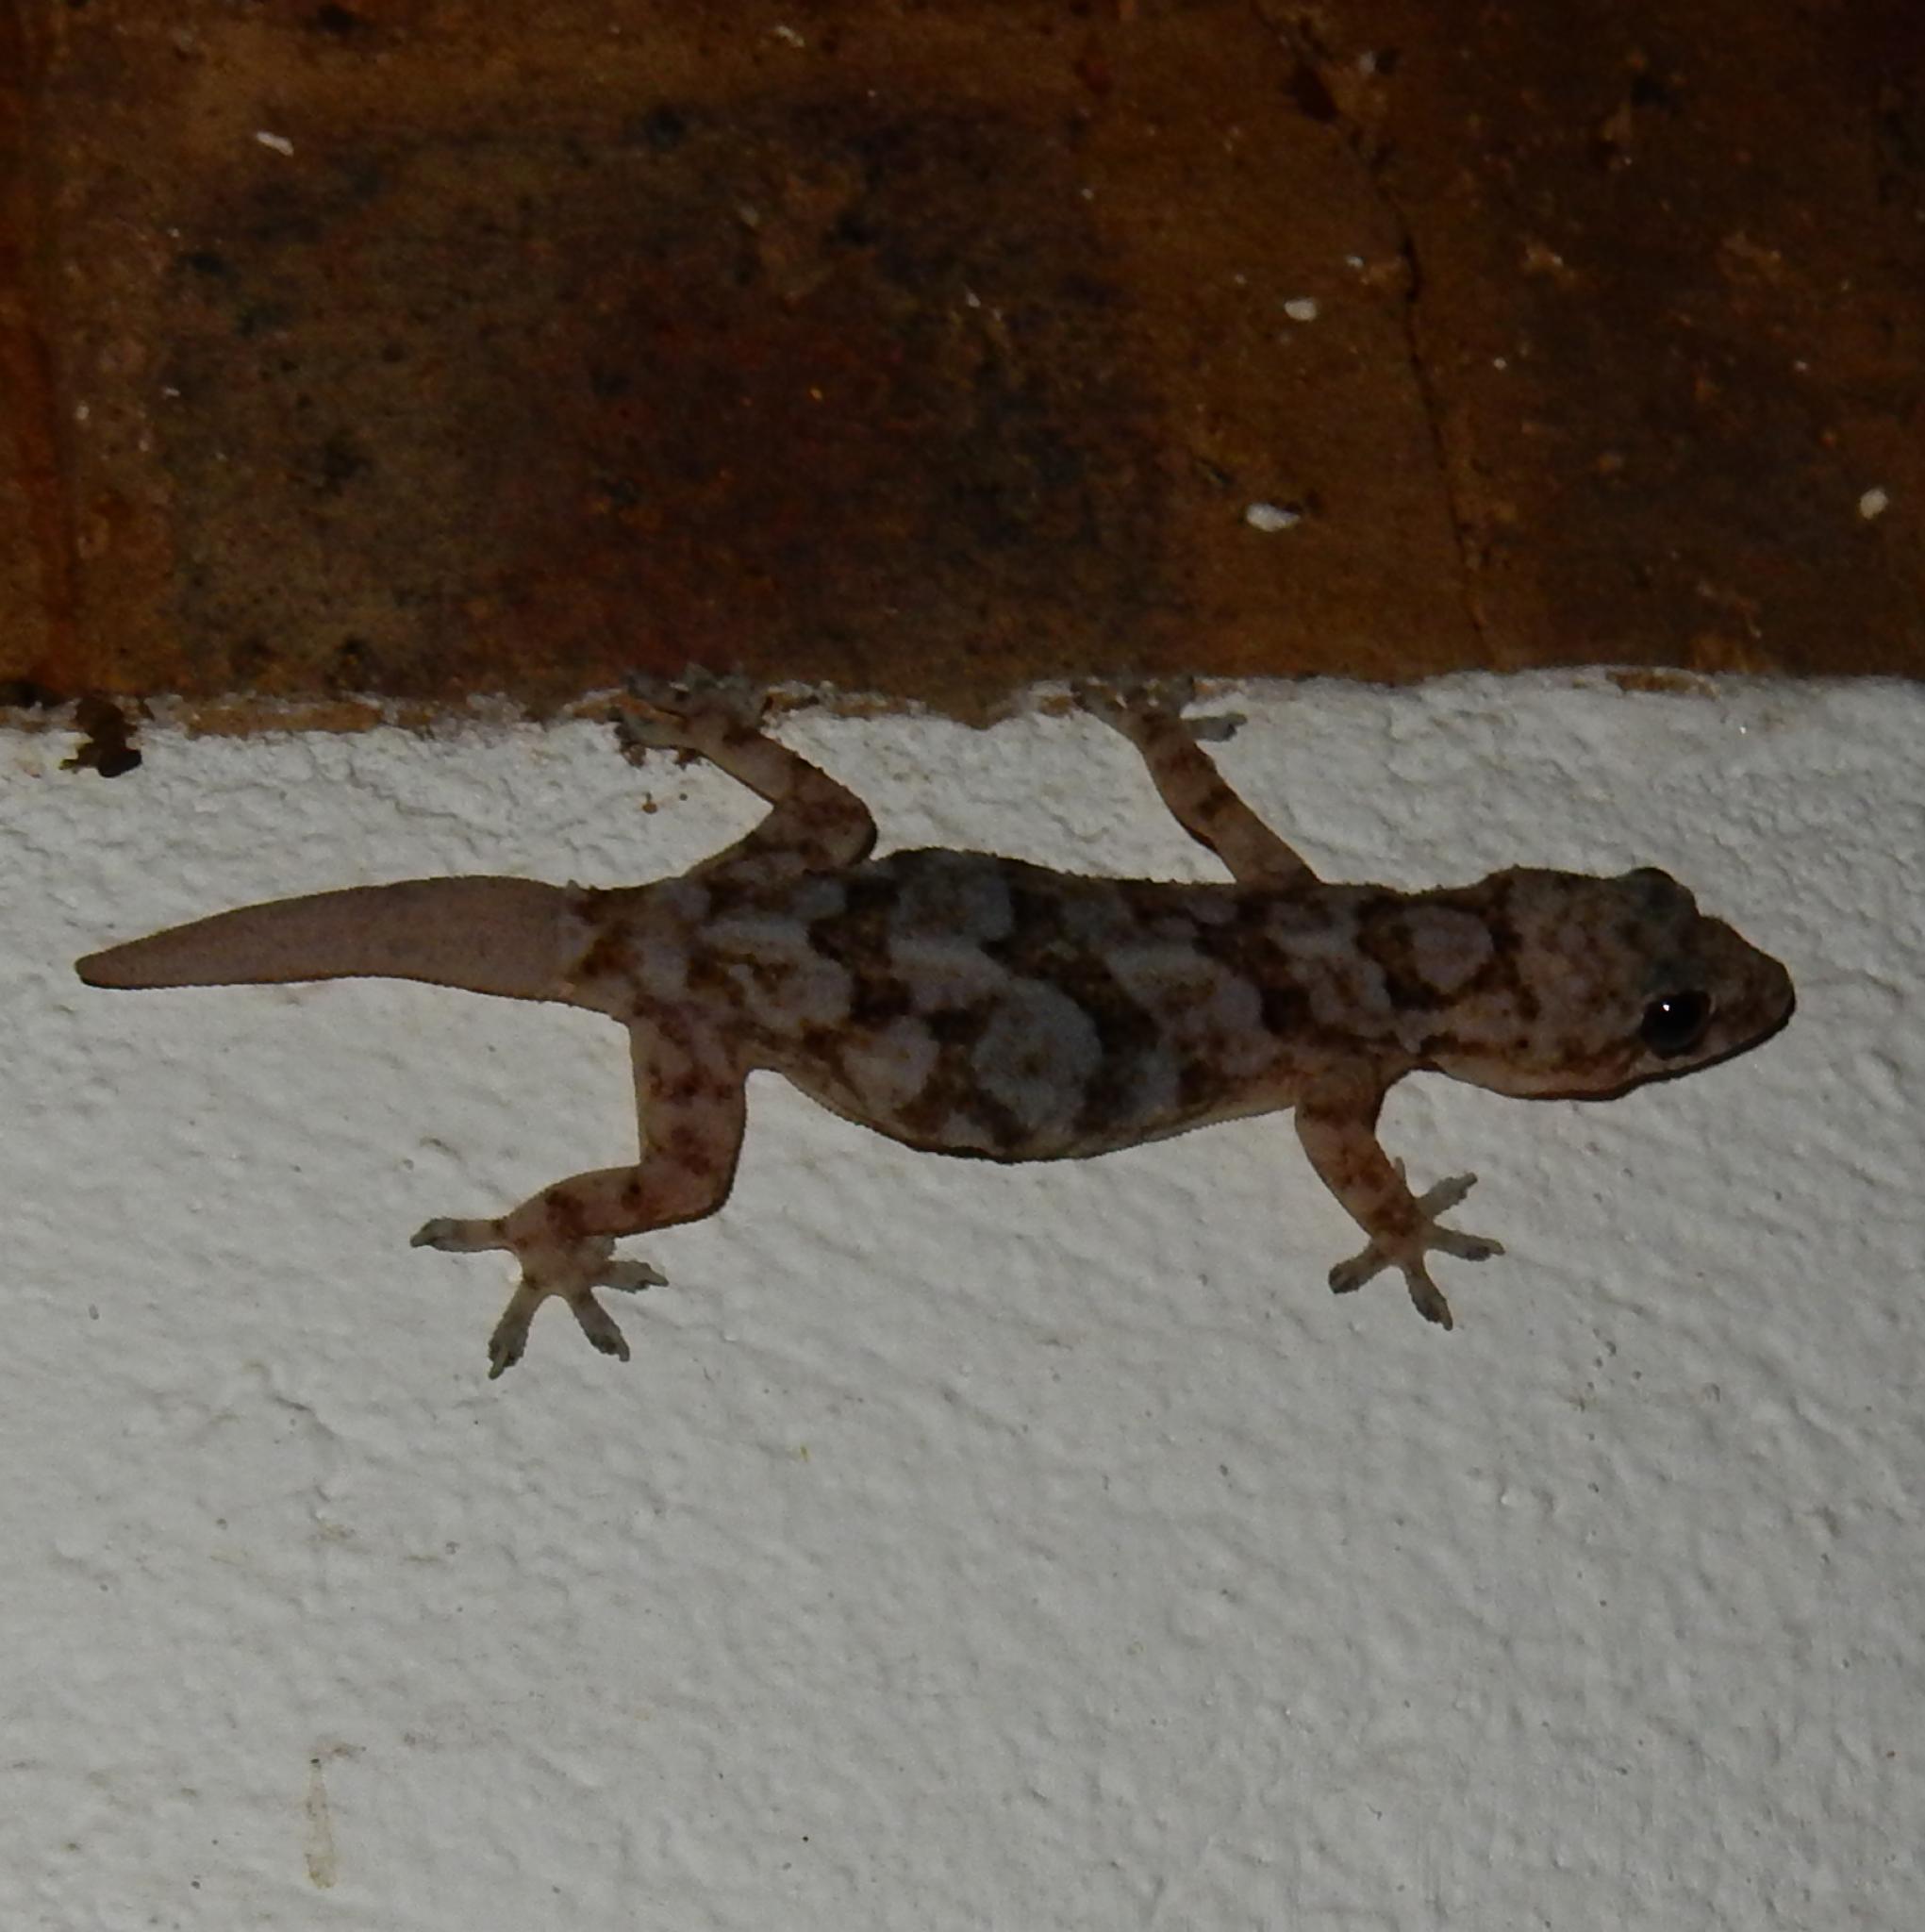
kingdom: Animalia
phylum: Chordata
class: Squamata
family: Gekkonidae
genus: Hemidactylus
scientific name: Hemidactylus mabouia
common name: House gecko
